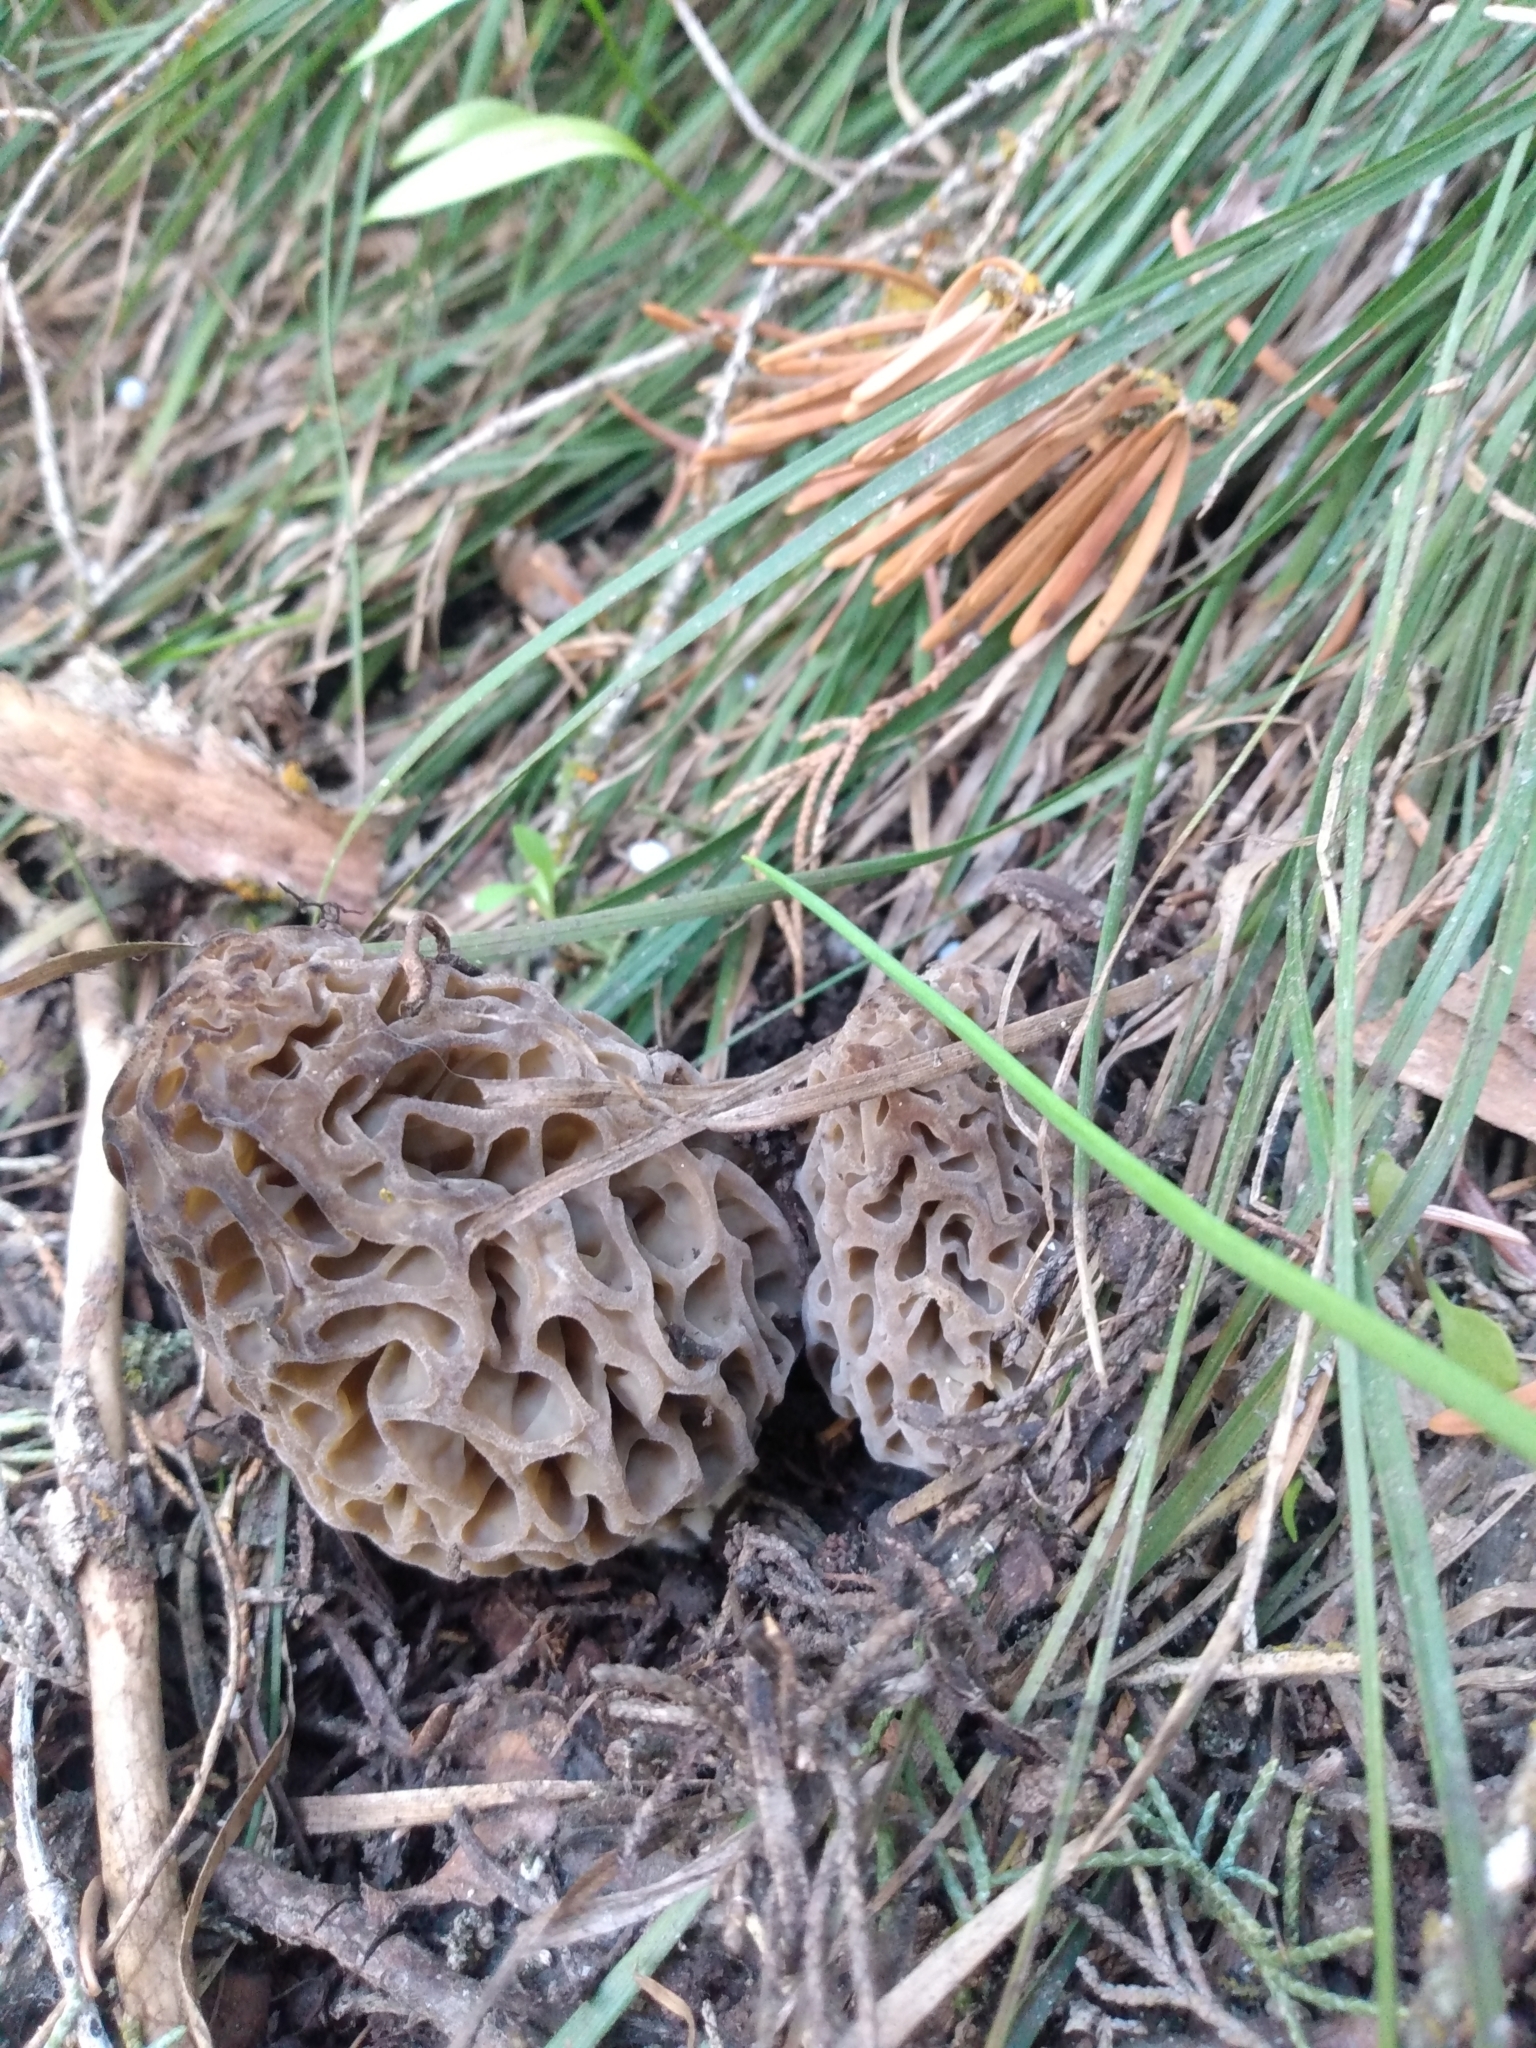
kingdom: Fungi
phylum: Ascomycota
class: Pezizomycetes
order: Pezizales
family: Morchellaceae
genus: Morchella
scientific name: Morchella snyderi
